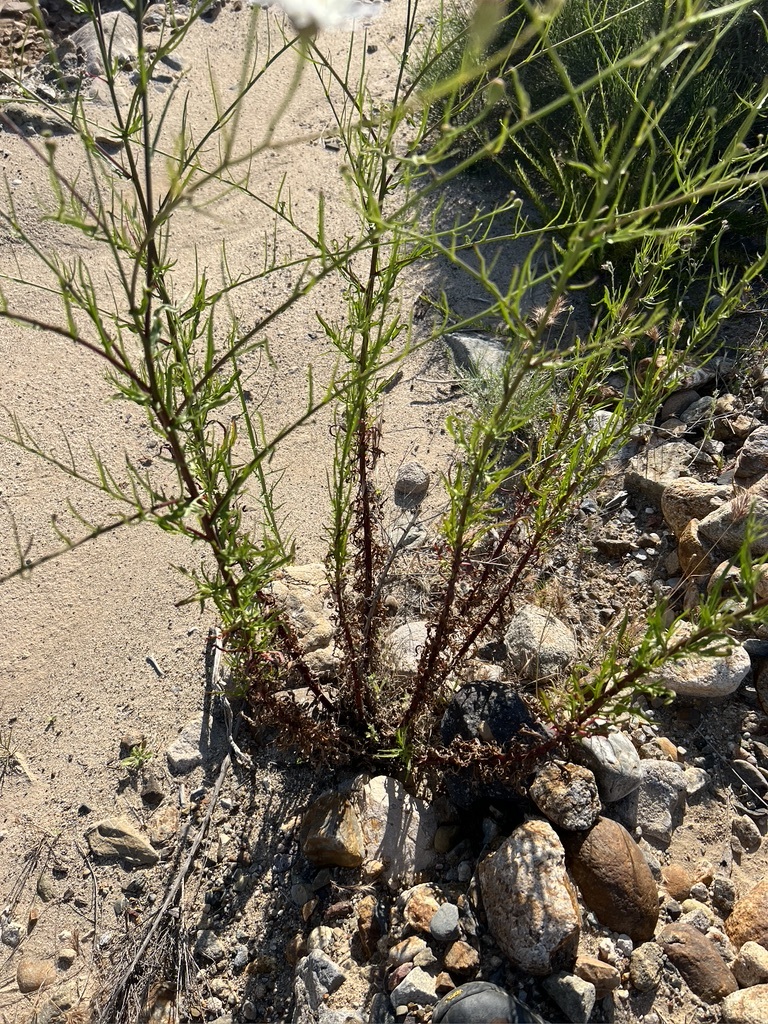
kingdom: Plantae
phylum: Tracheophyta
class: Magnoliopsida
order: Asterales
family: Asteraceae
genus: Malacothrix
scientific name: Malacothrix saxatilis
